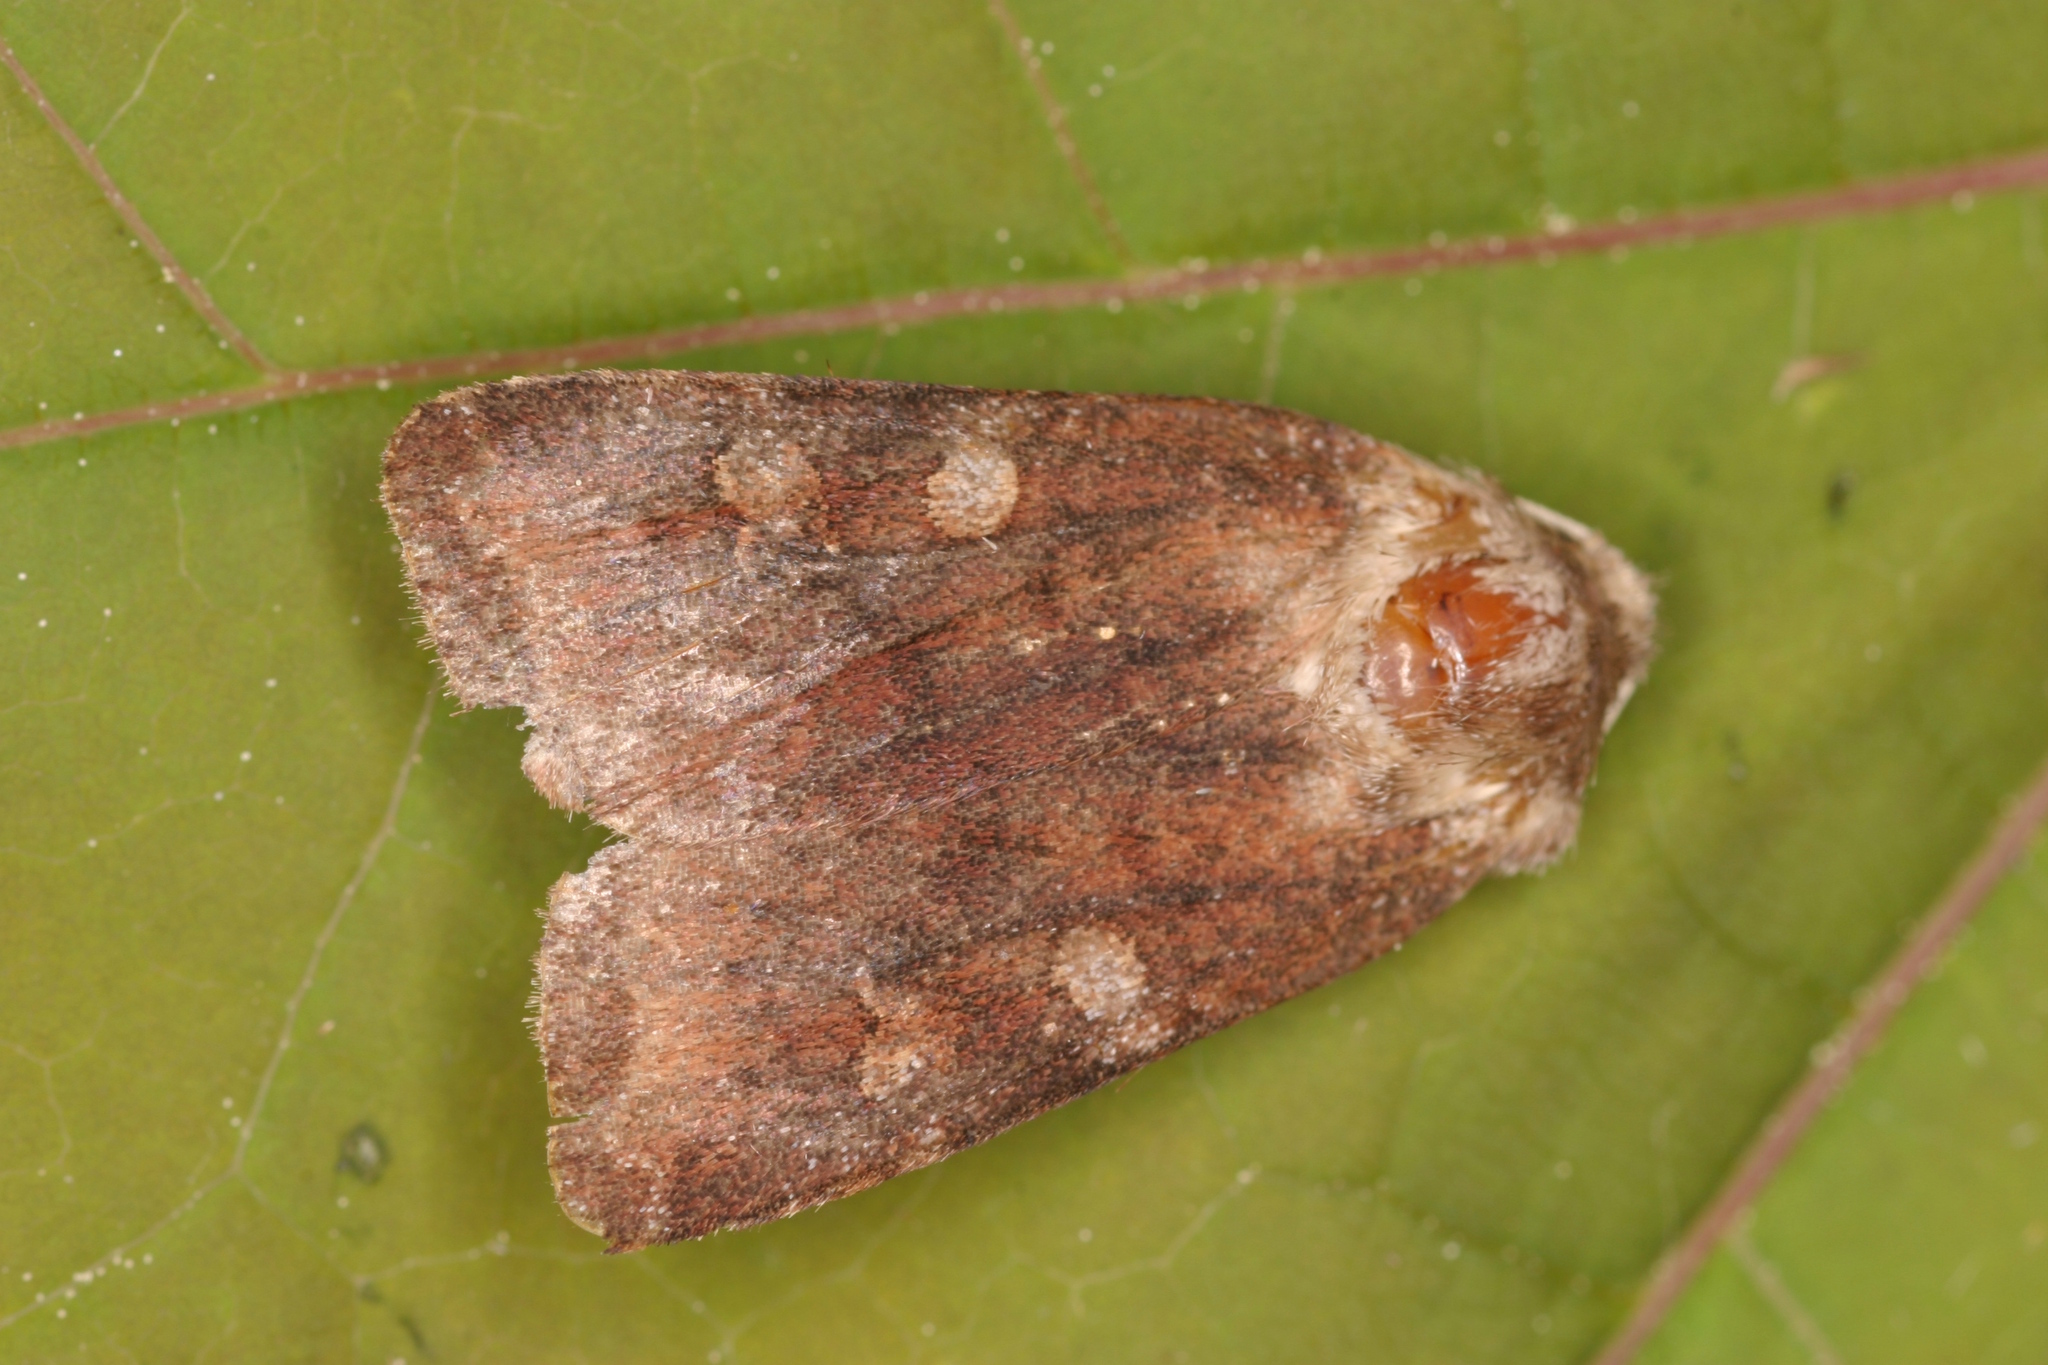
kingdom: Animalia
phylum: Arthropoda
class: Insecta
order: Lepidoptera
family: Noctuidae
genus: Cerastis
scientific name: Cerastis leucographa
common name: White-marked
